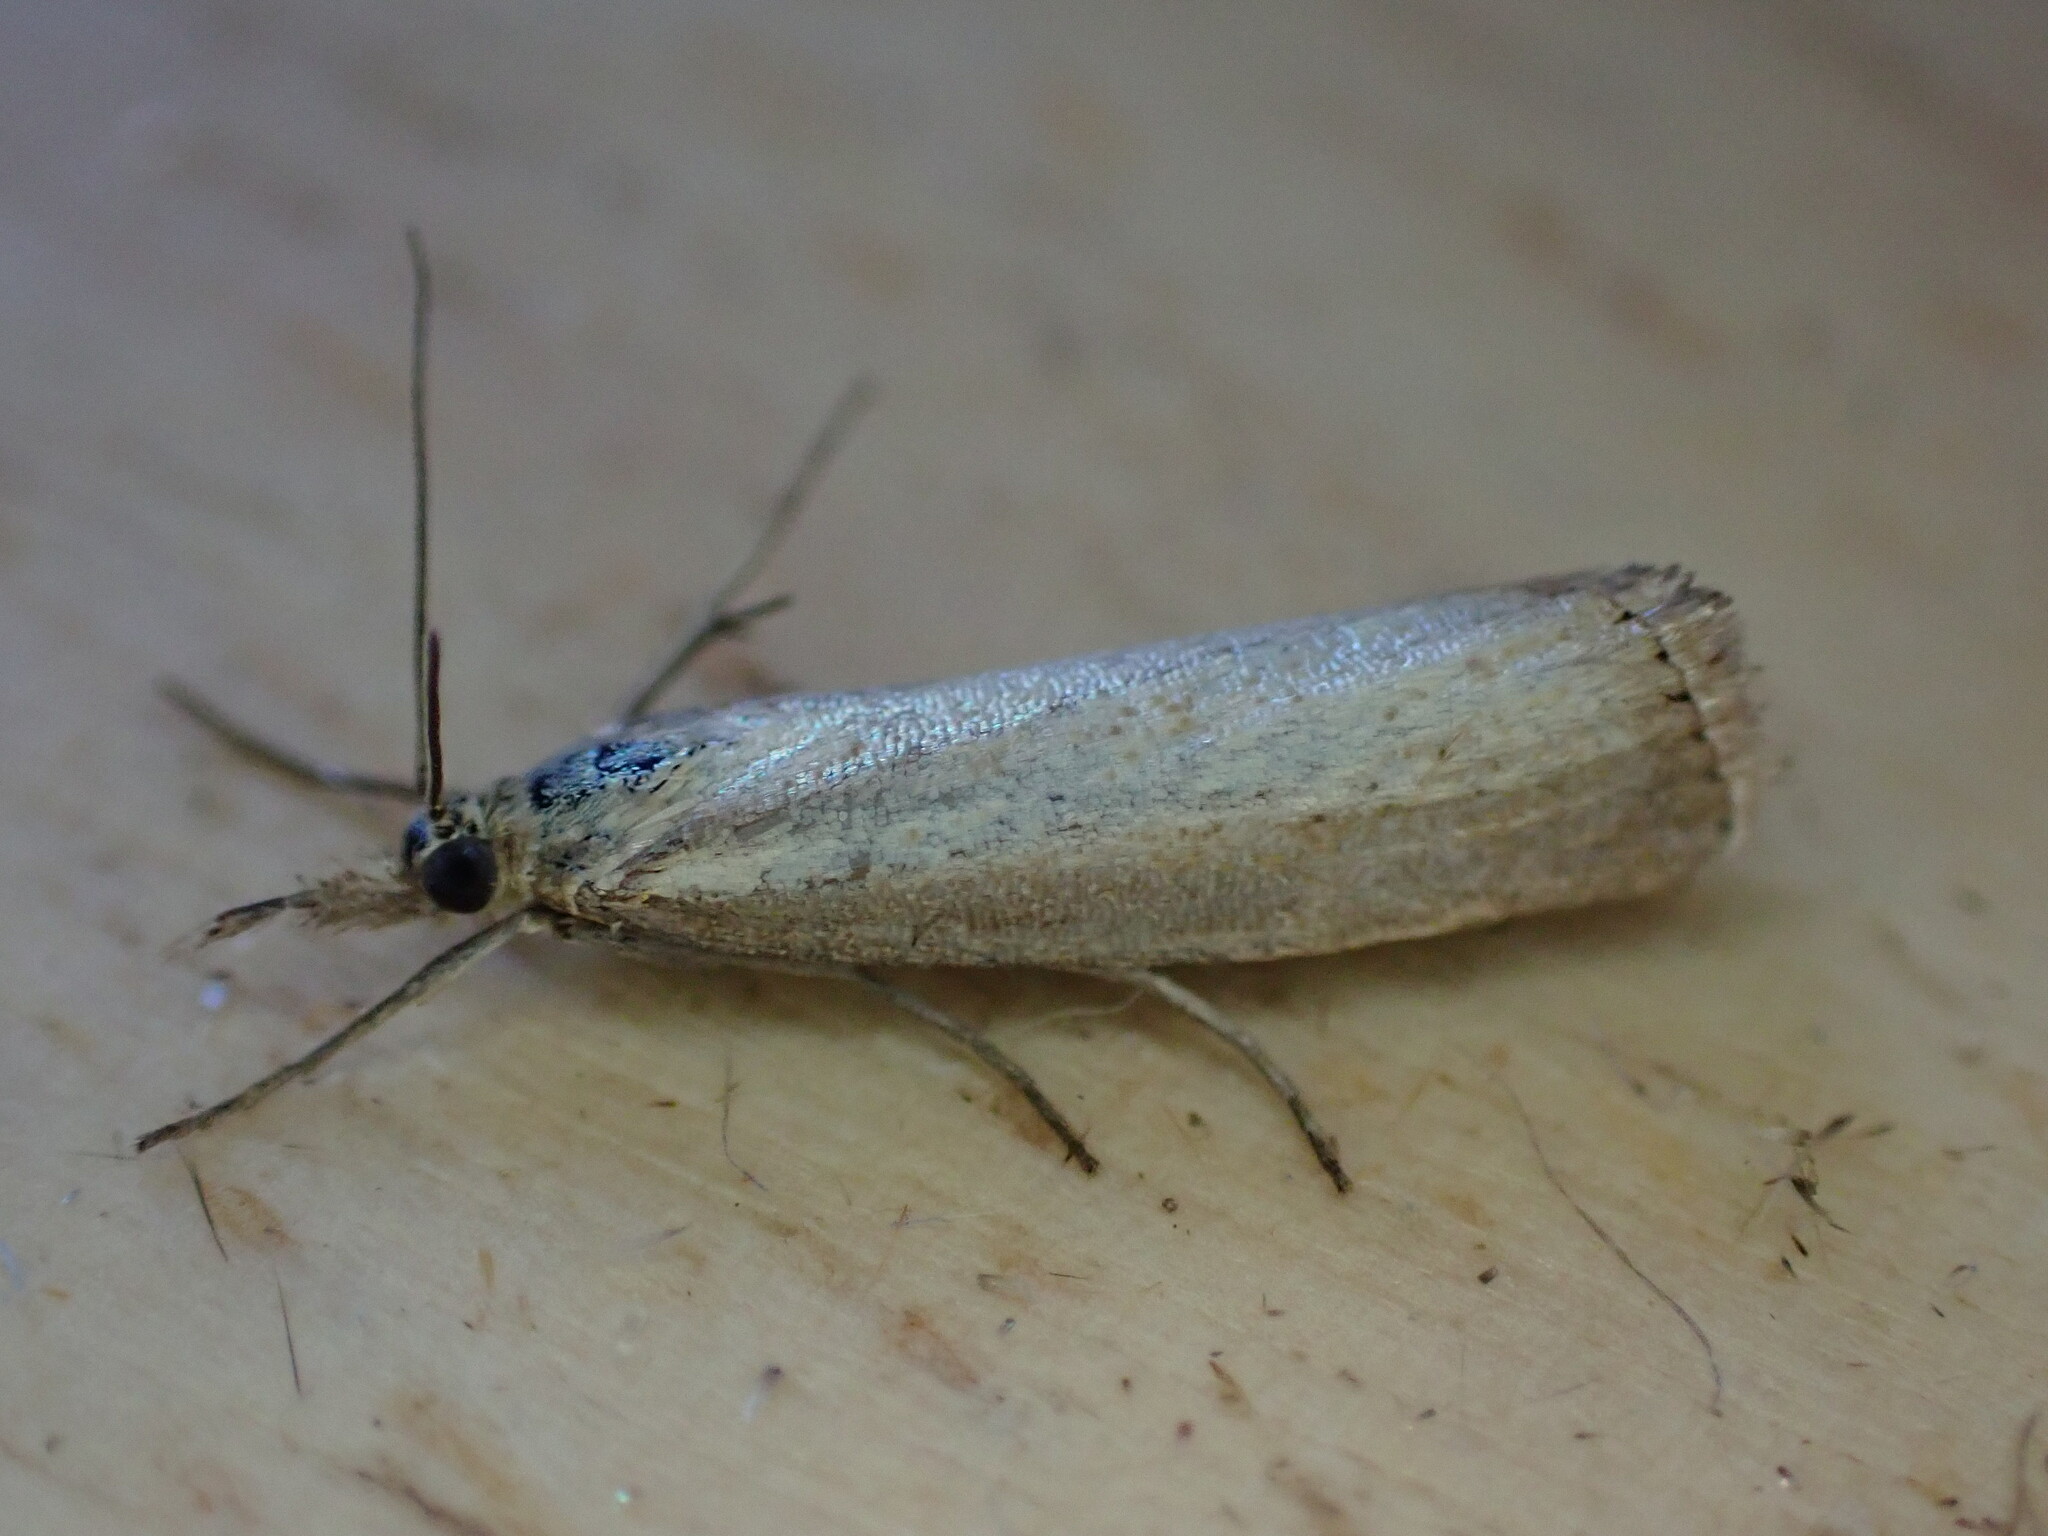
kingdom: Animalia
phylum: Arthropoda
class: Insecta
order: Lepidoptera
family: Crambidae
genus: Agriphila
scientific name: Agriphila straminella
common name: Straw grass-veneer
